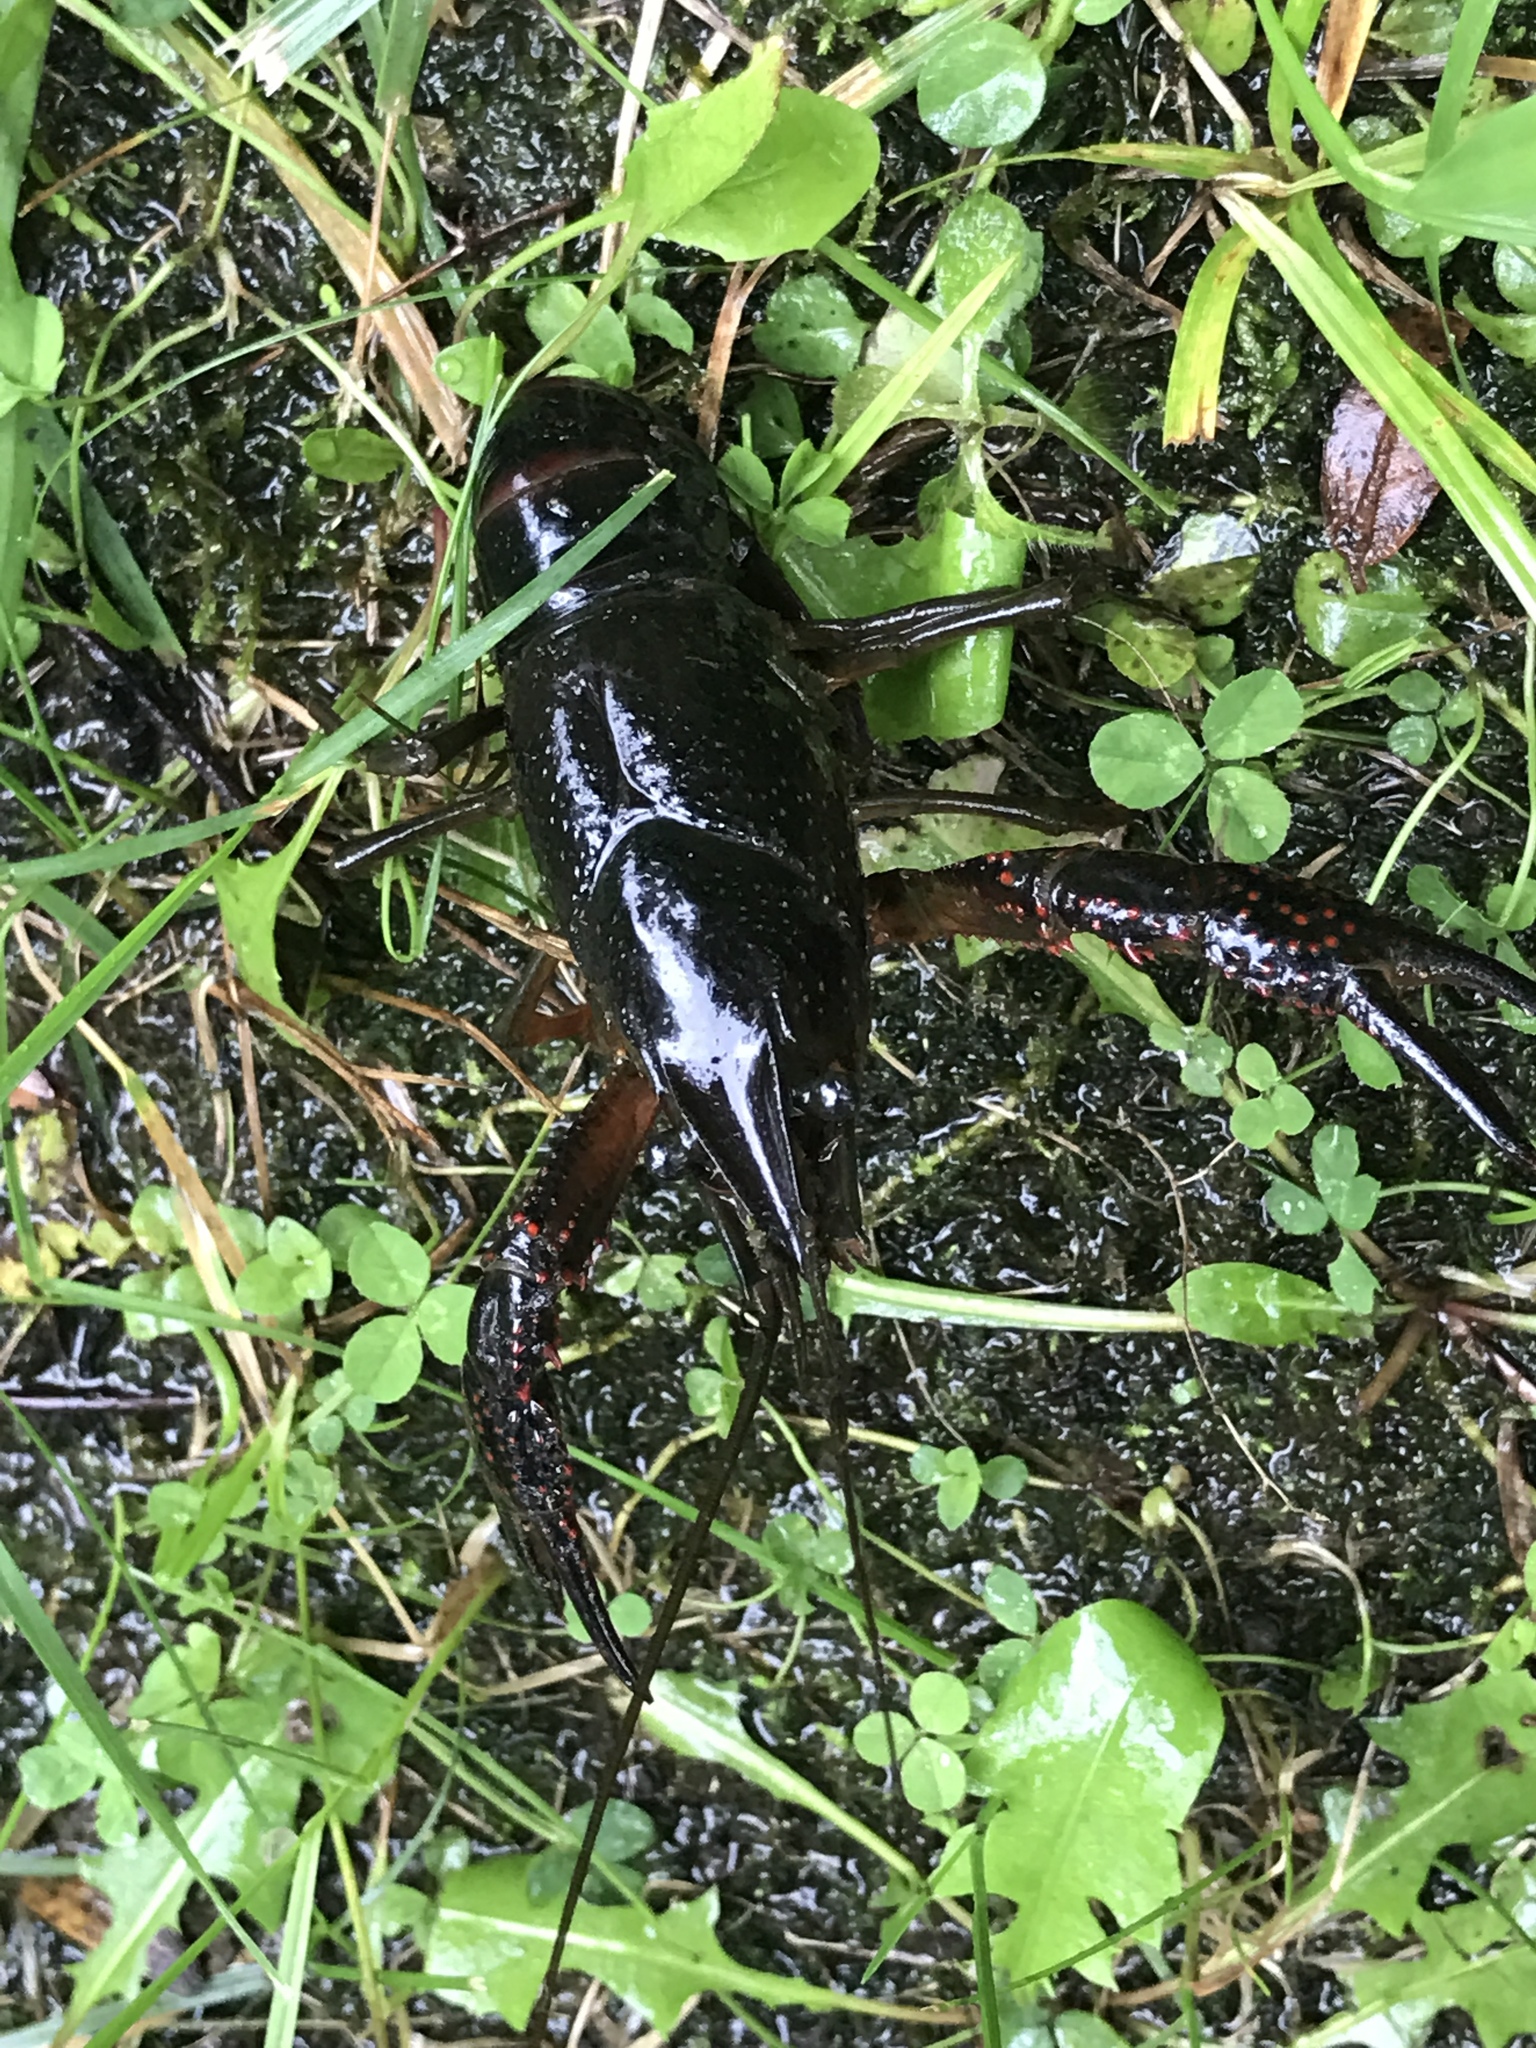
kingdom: Animalia
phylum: Arthropoda
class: Malacostraca
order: Decapoda
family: Cambaridae
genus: Procambarus
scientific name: Procambarus clarkii
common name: Red swamp crayfish
